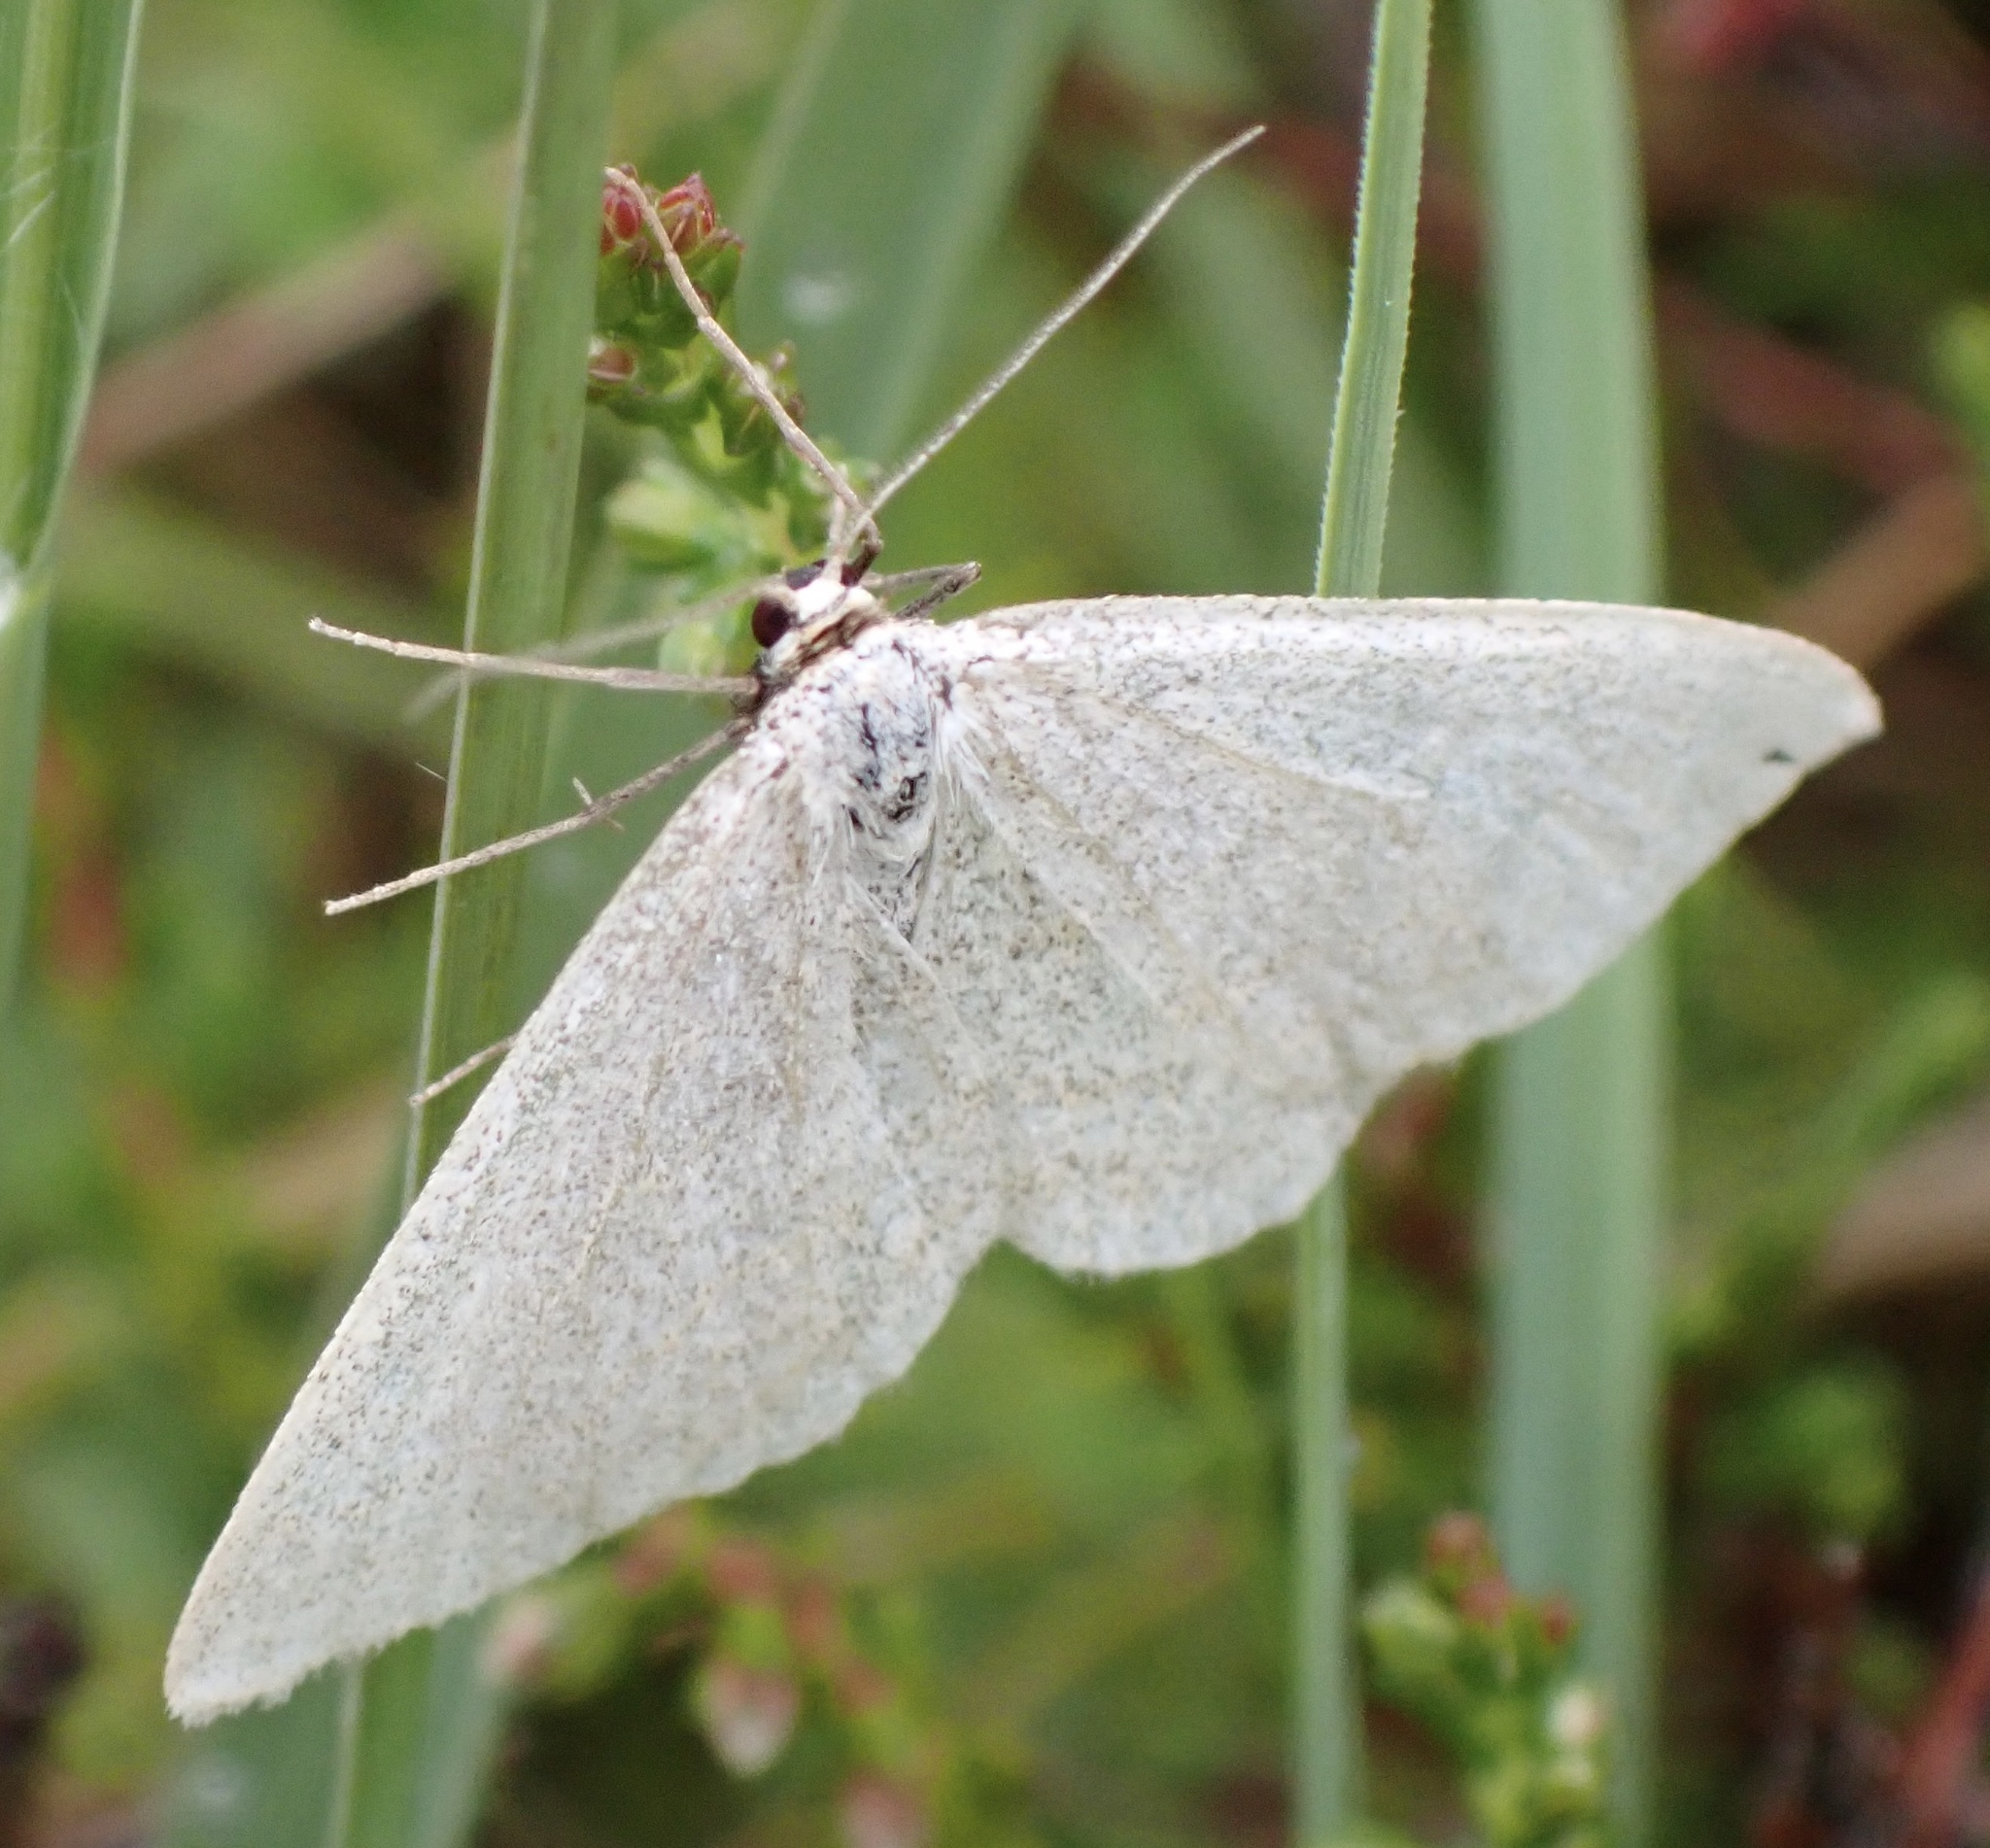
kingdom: Animalia
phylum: Arthropoda
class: Insecta
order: Lepidoptera
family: Geometridae
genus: Scopula
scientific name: Scopula ternata
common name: Smoky wave
